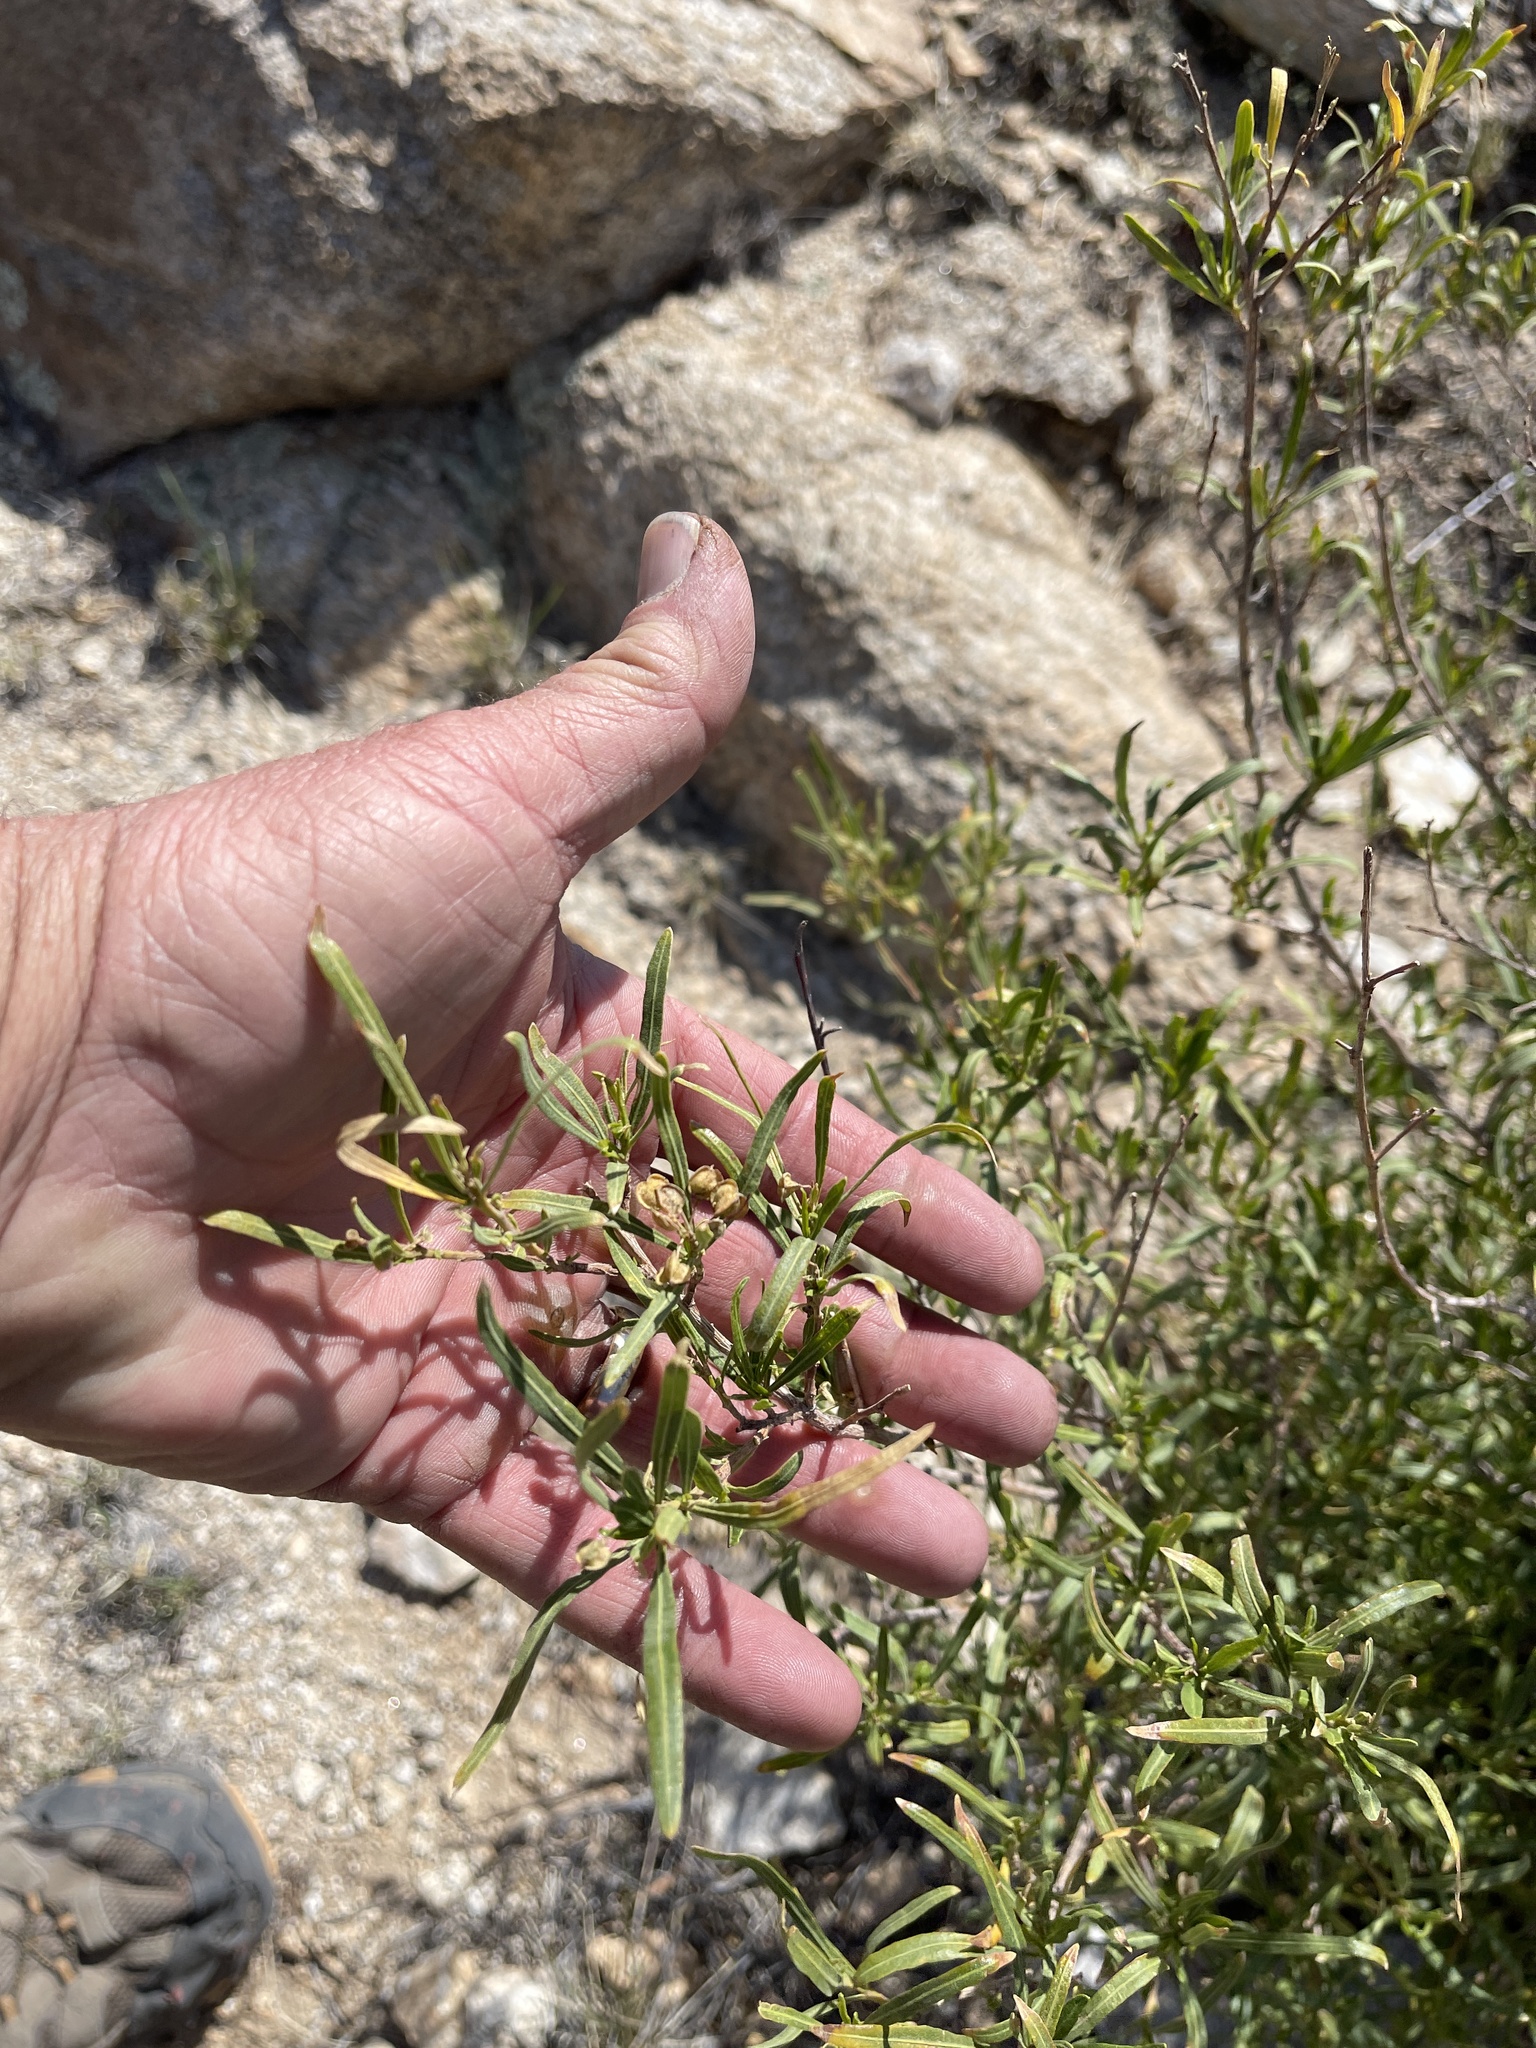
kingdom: Plantae
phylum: Tracheophyta
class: Magnoliopsida
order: Sapindales
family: Sapindaceae
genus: Dodonaea
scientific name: Dodonaea viscosa
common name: Hopbush
